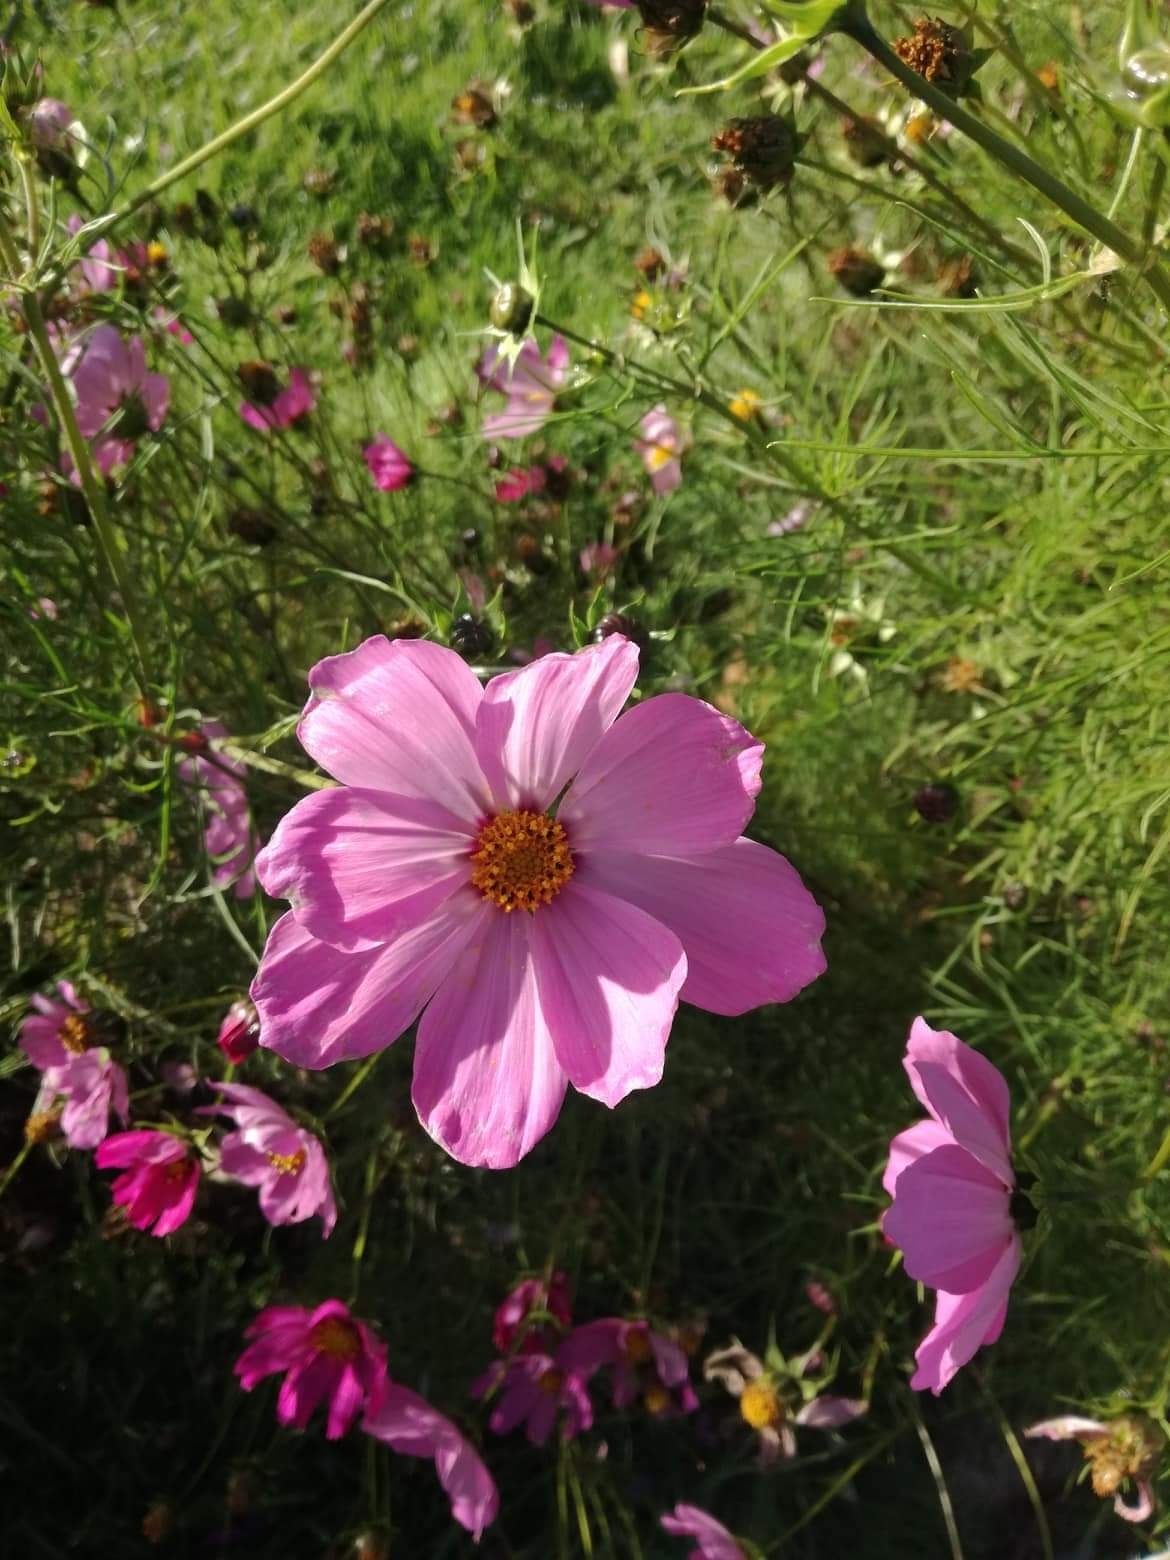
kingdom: Plantae
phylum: Tracheophyta
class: Magnoliopsida
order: Asterales
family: Asteraceae
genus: Cosmos
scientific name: Cosmos bipinnatus
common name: Garden cosmos
